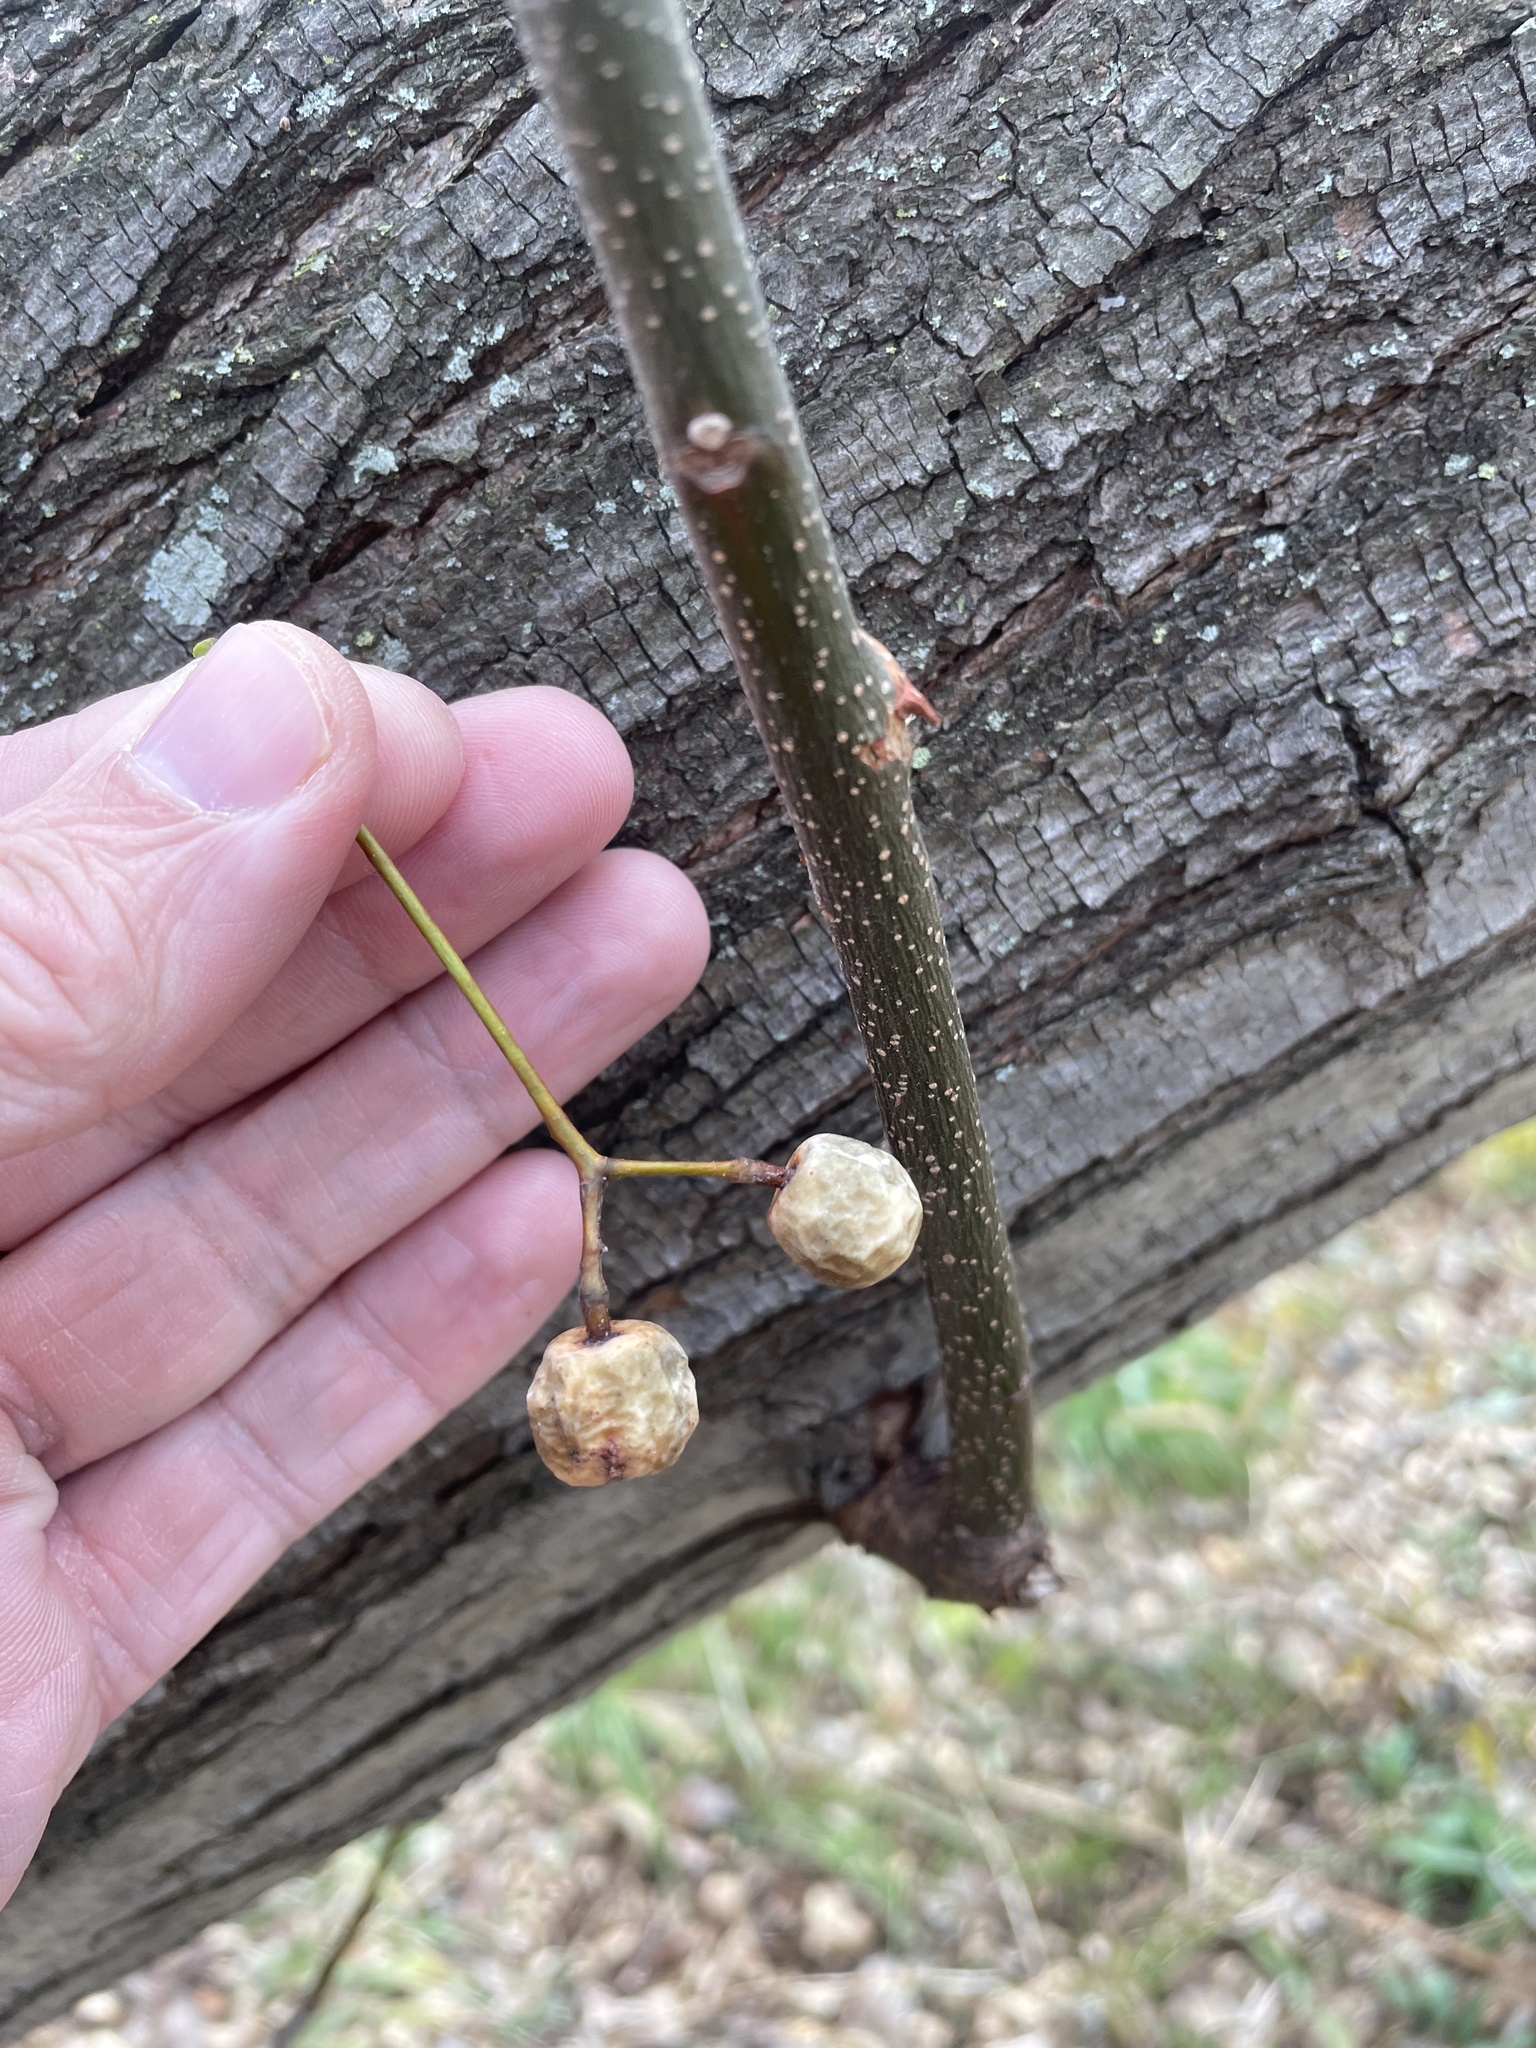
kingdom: Plantae
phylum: Tracheophyta
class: Magnoliopsida
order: Sapindales
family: Meliaceae
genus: Melia
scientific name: Melia azedarach
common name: Chinaberrytree
